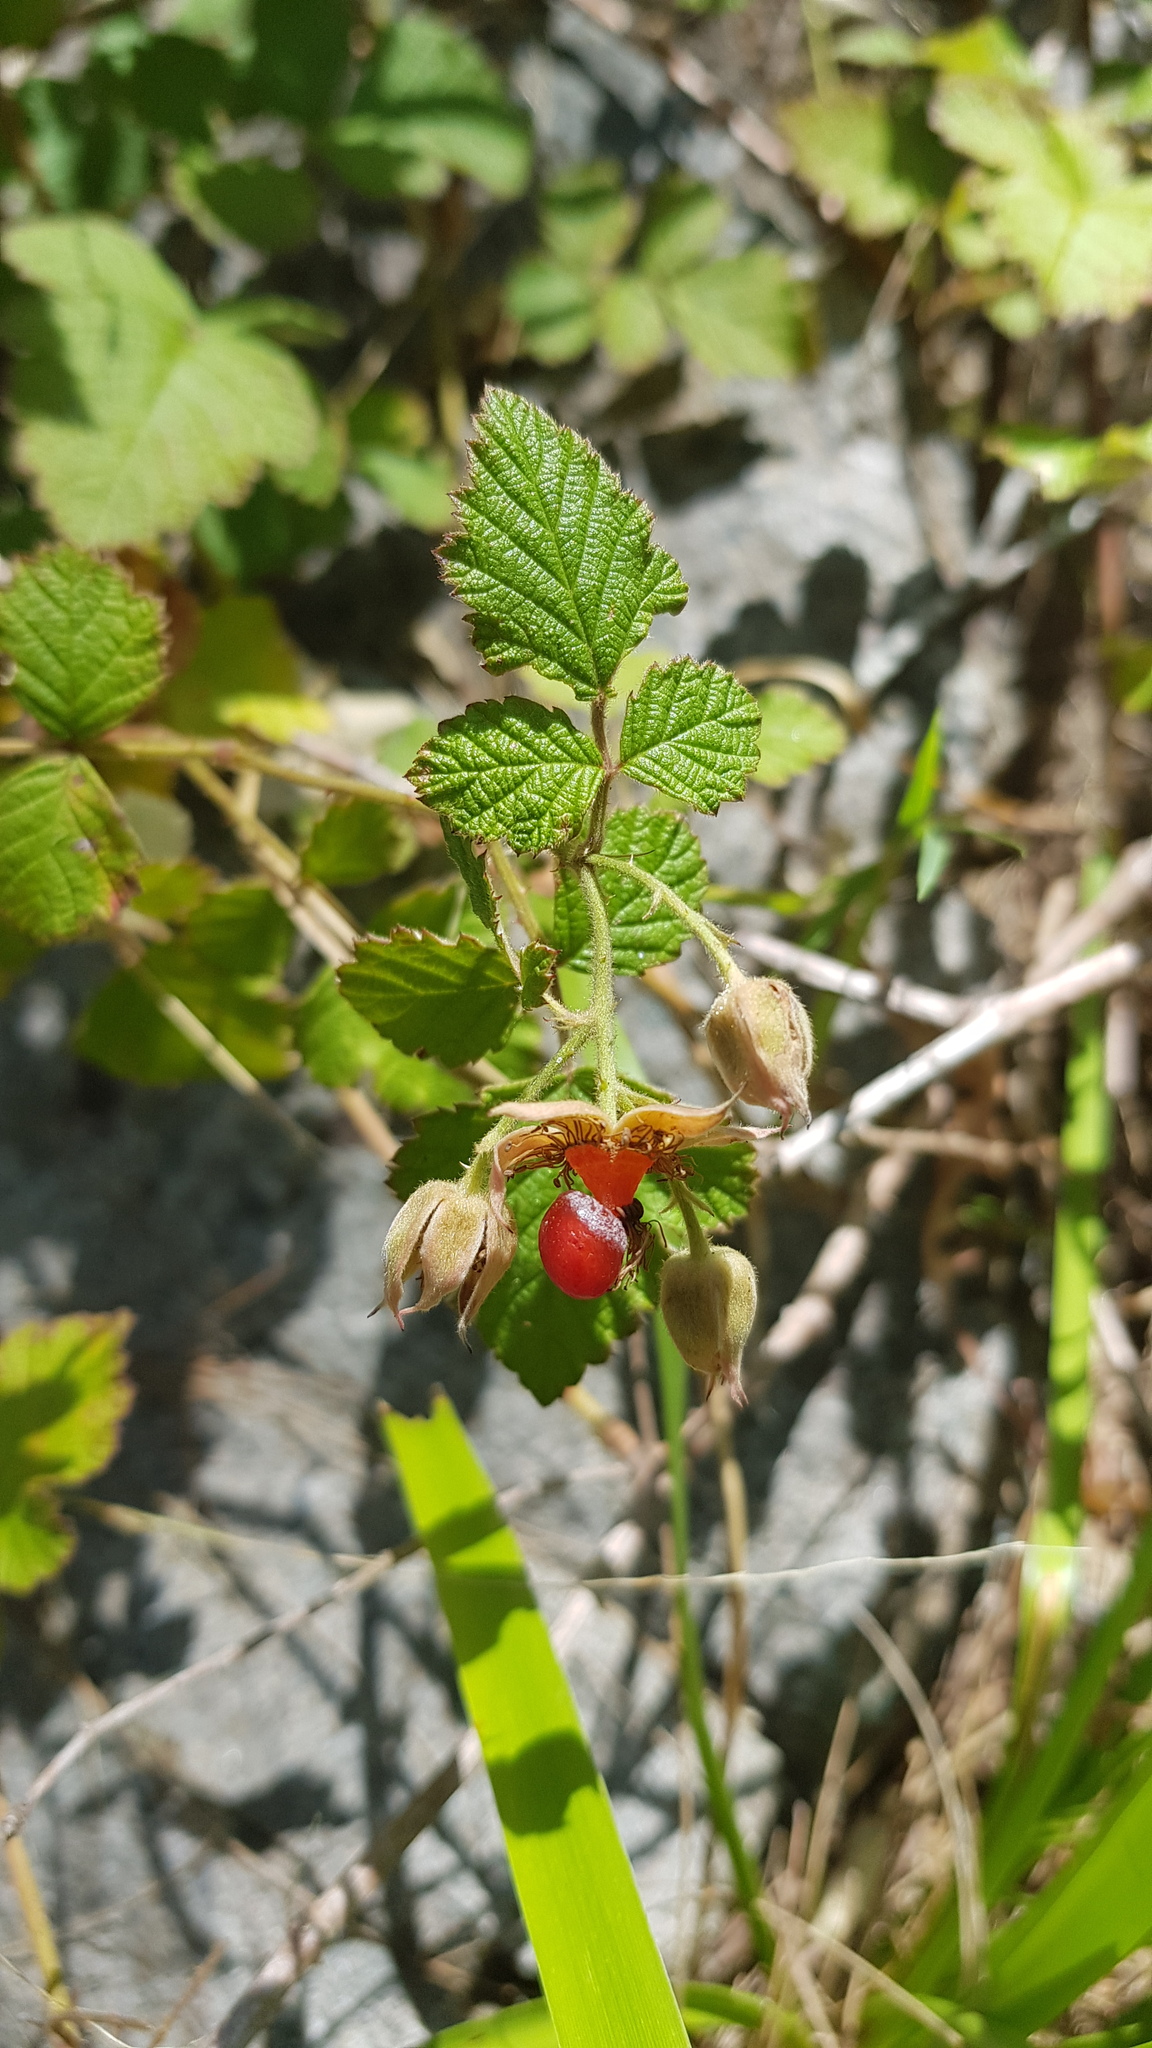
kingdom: Plantae
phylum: Tracheophyta
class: Magnoliopsida
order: Rosales
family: Rosaceae
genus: Rubus
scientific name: Rubus parvifolius
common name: Threeleaf blackberry
